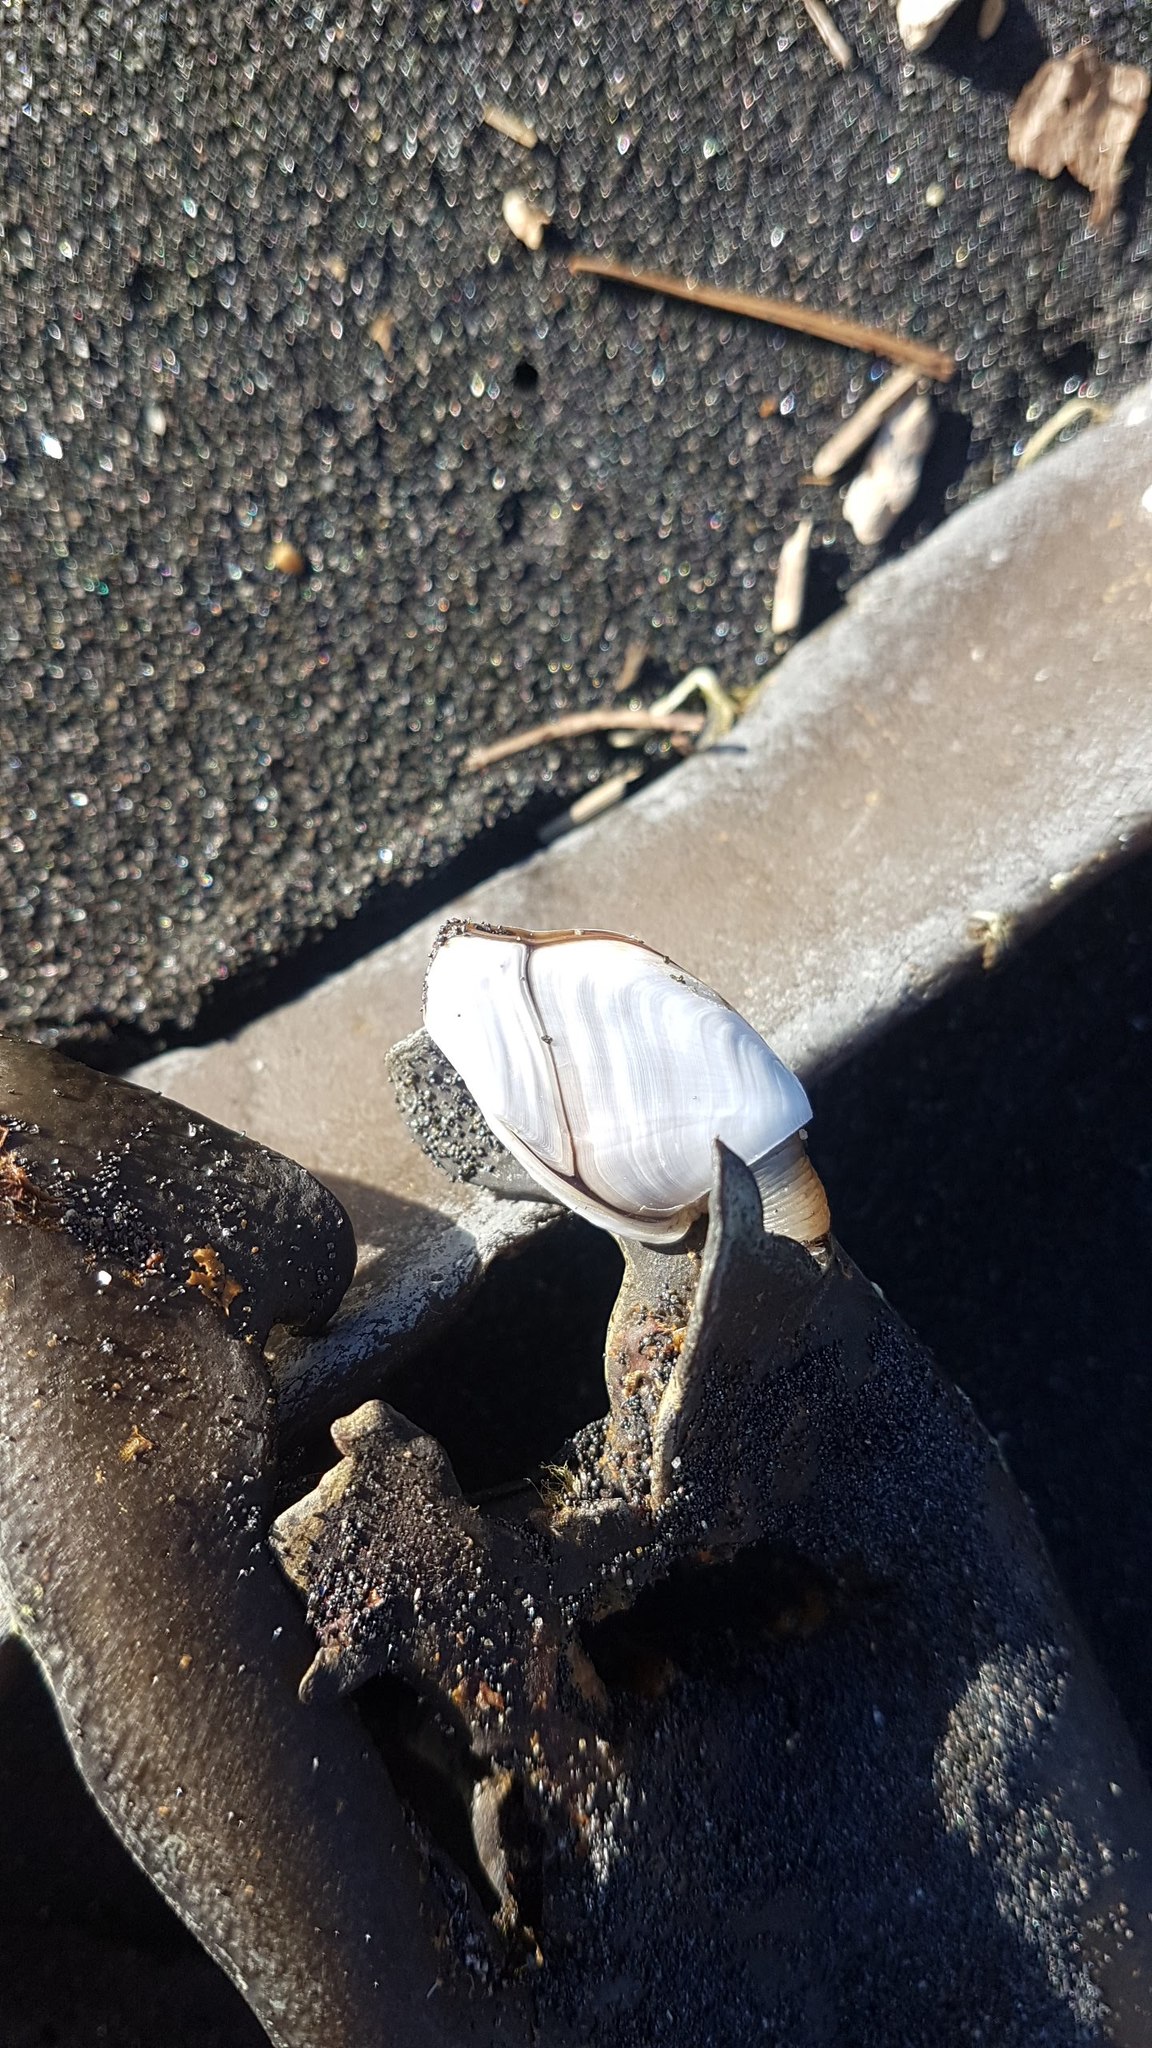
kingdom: Animalia
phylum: Arthropoda
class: Maxillopoda
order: Pedunculata
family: Lepadidae
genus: Lepas
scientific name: Lepas anatifera
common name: Common goose barnacle
